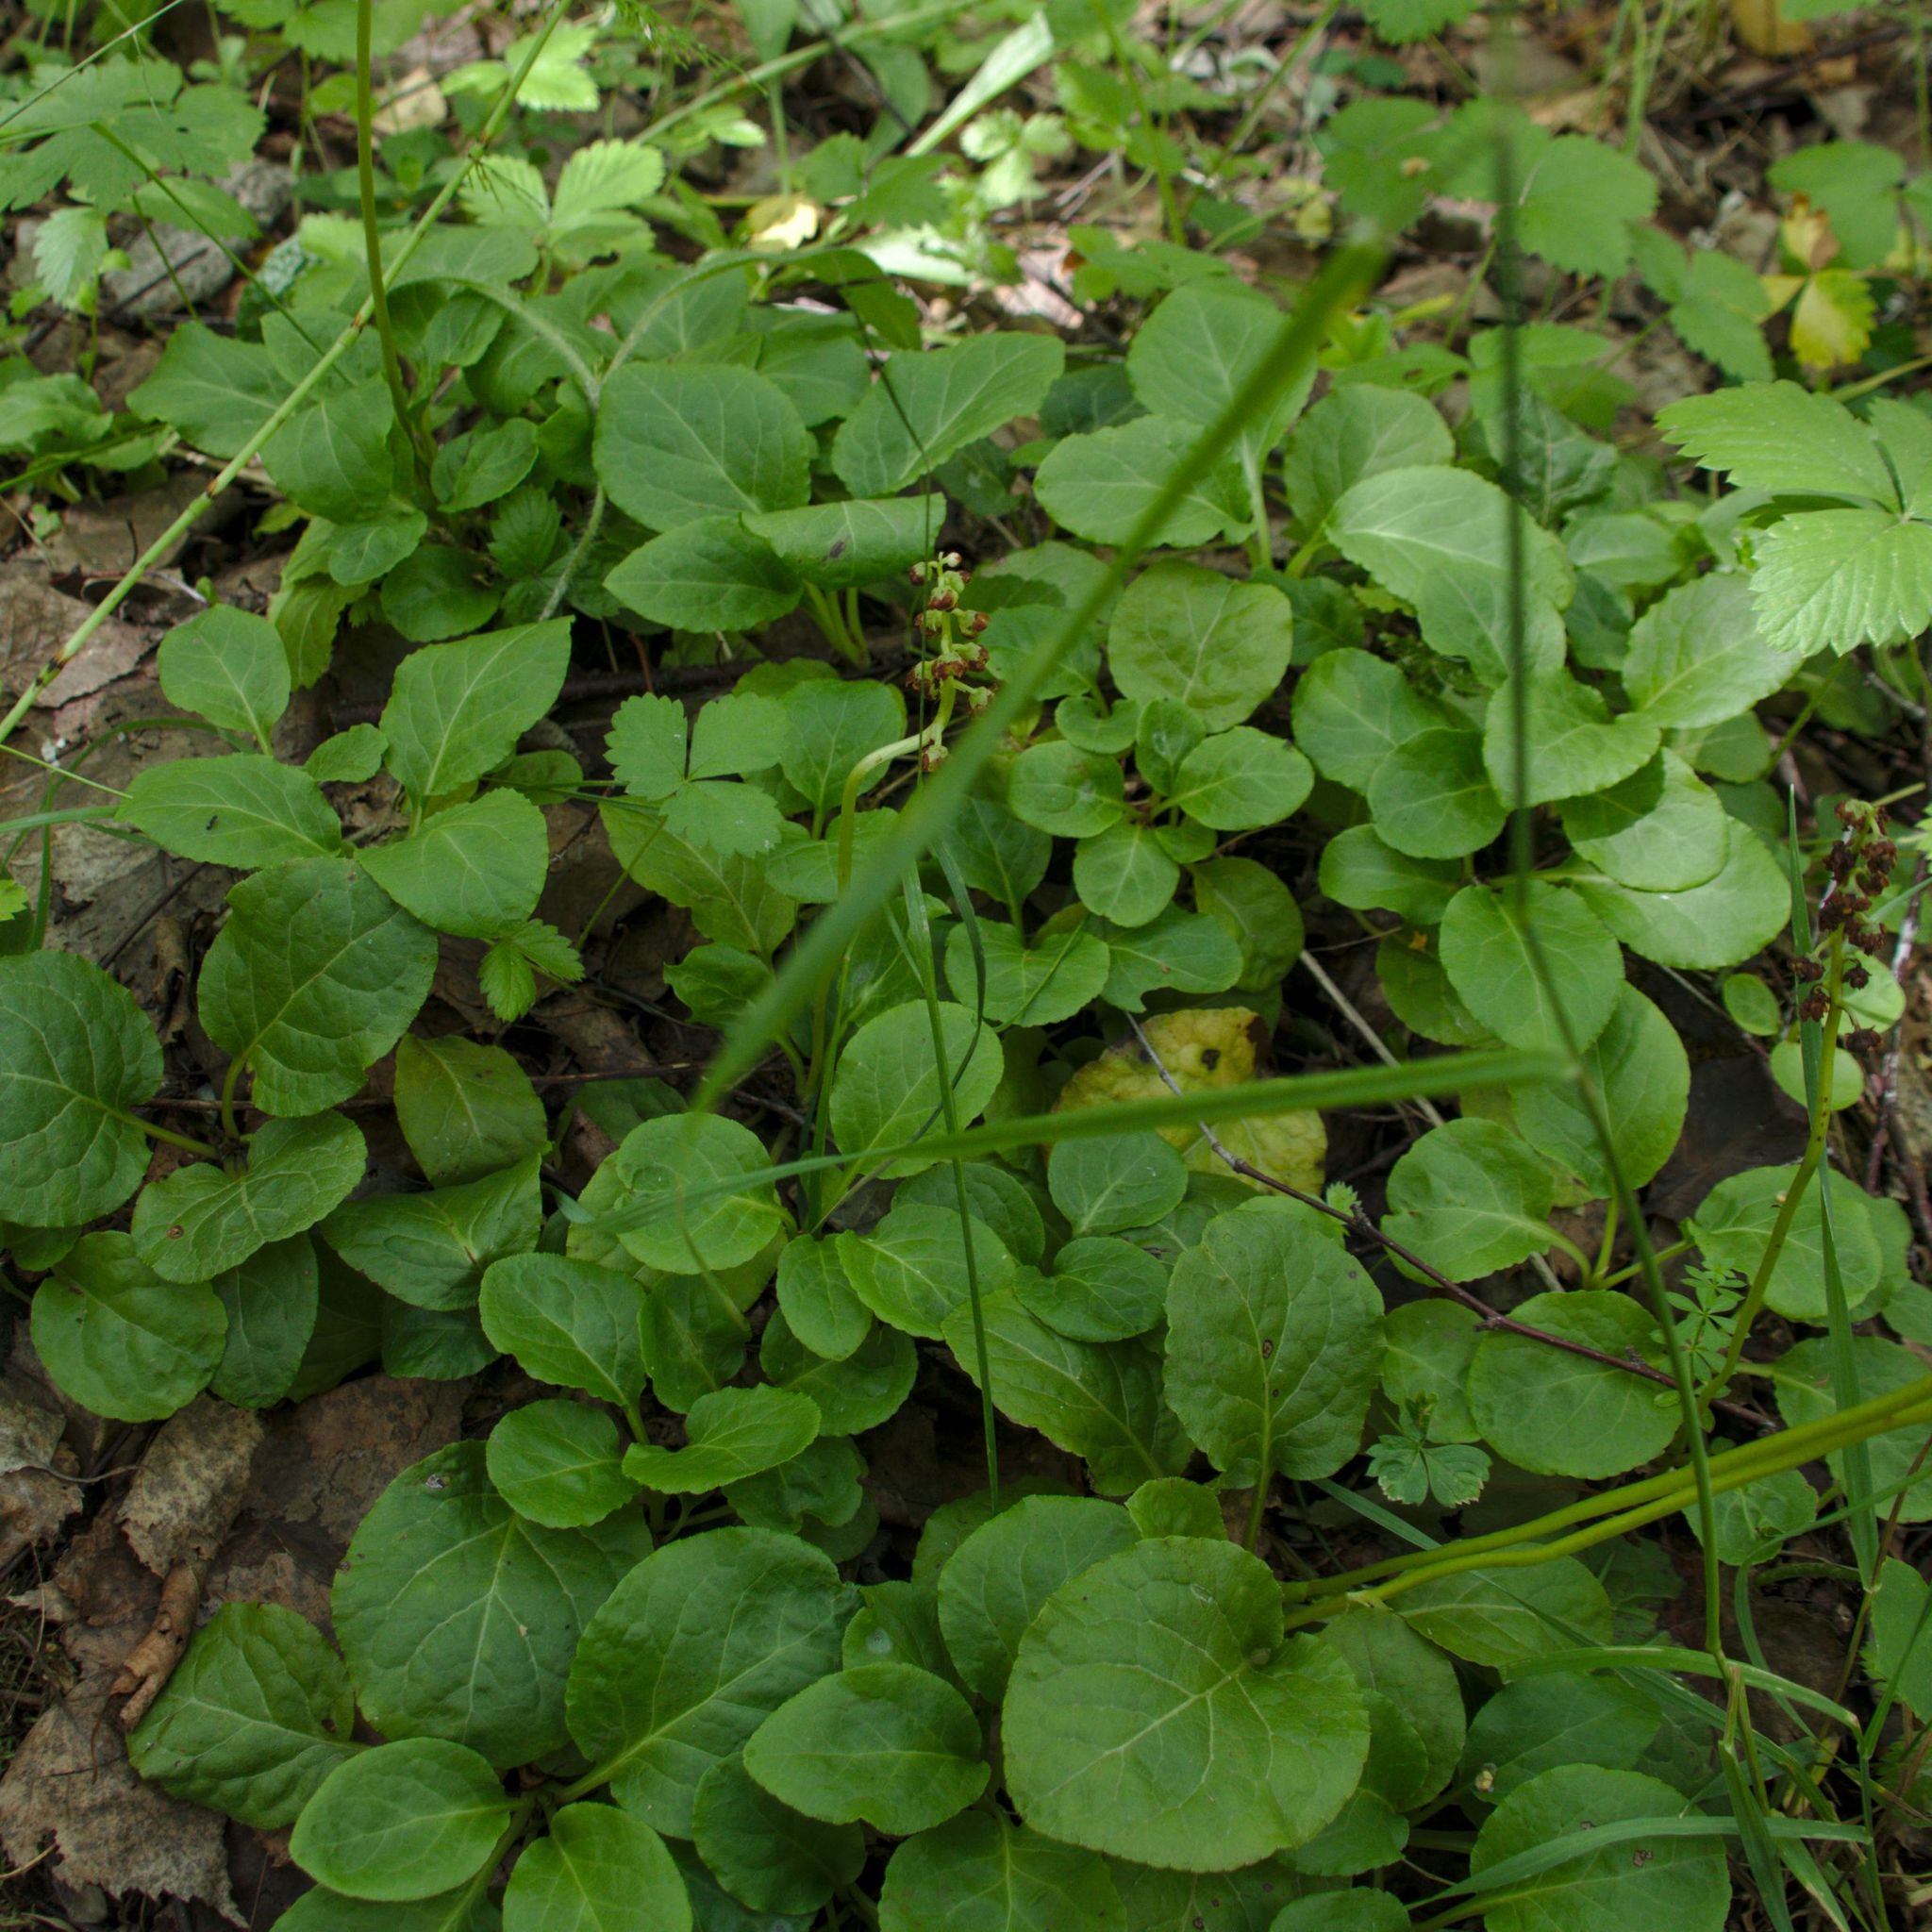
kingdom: Plantae
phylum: Tracheophyta
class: Magnoliopsida
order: Ericales
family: Ericaceae
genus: Pyrola
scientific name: Pyrola minor
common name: Common wintergreen
